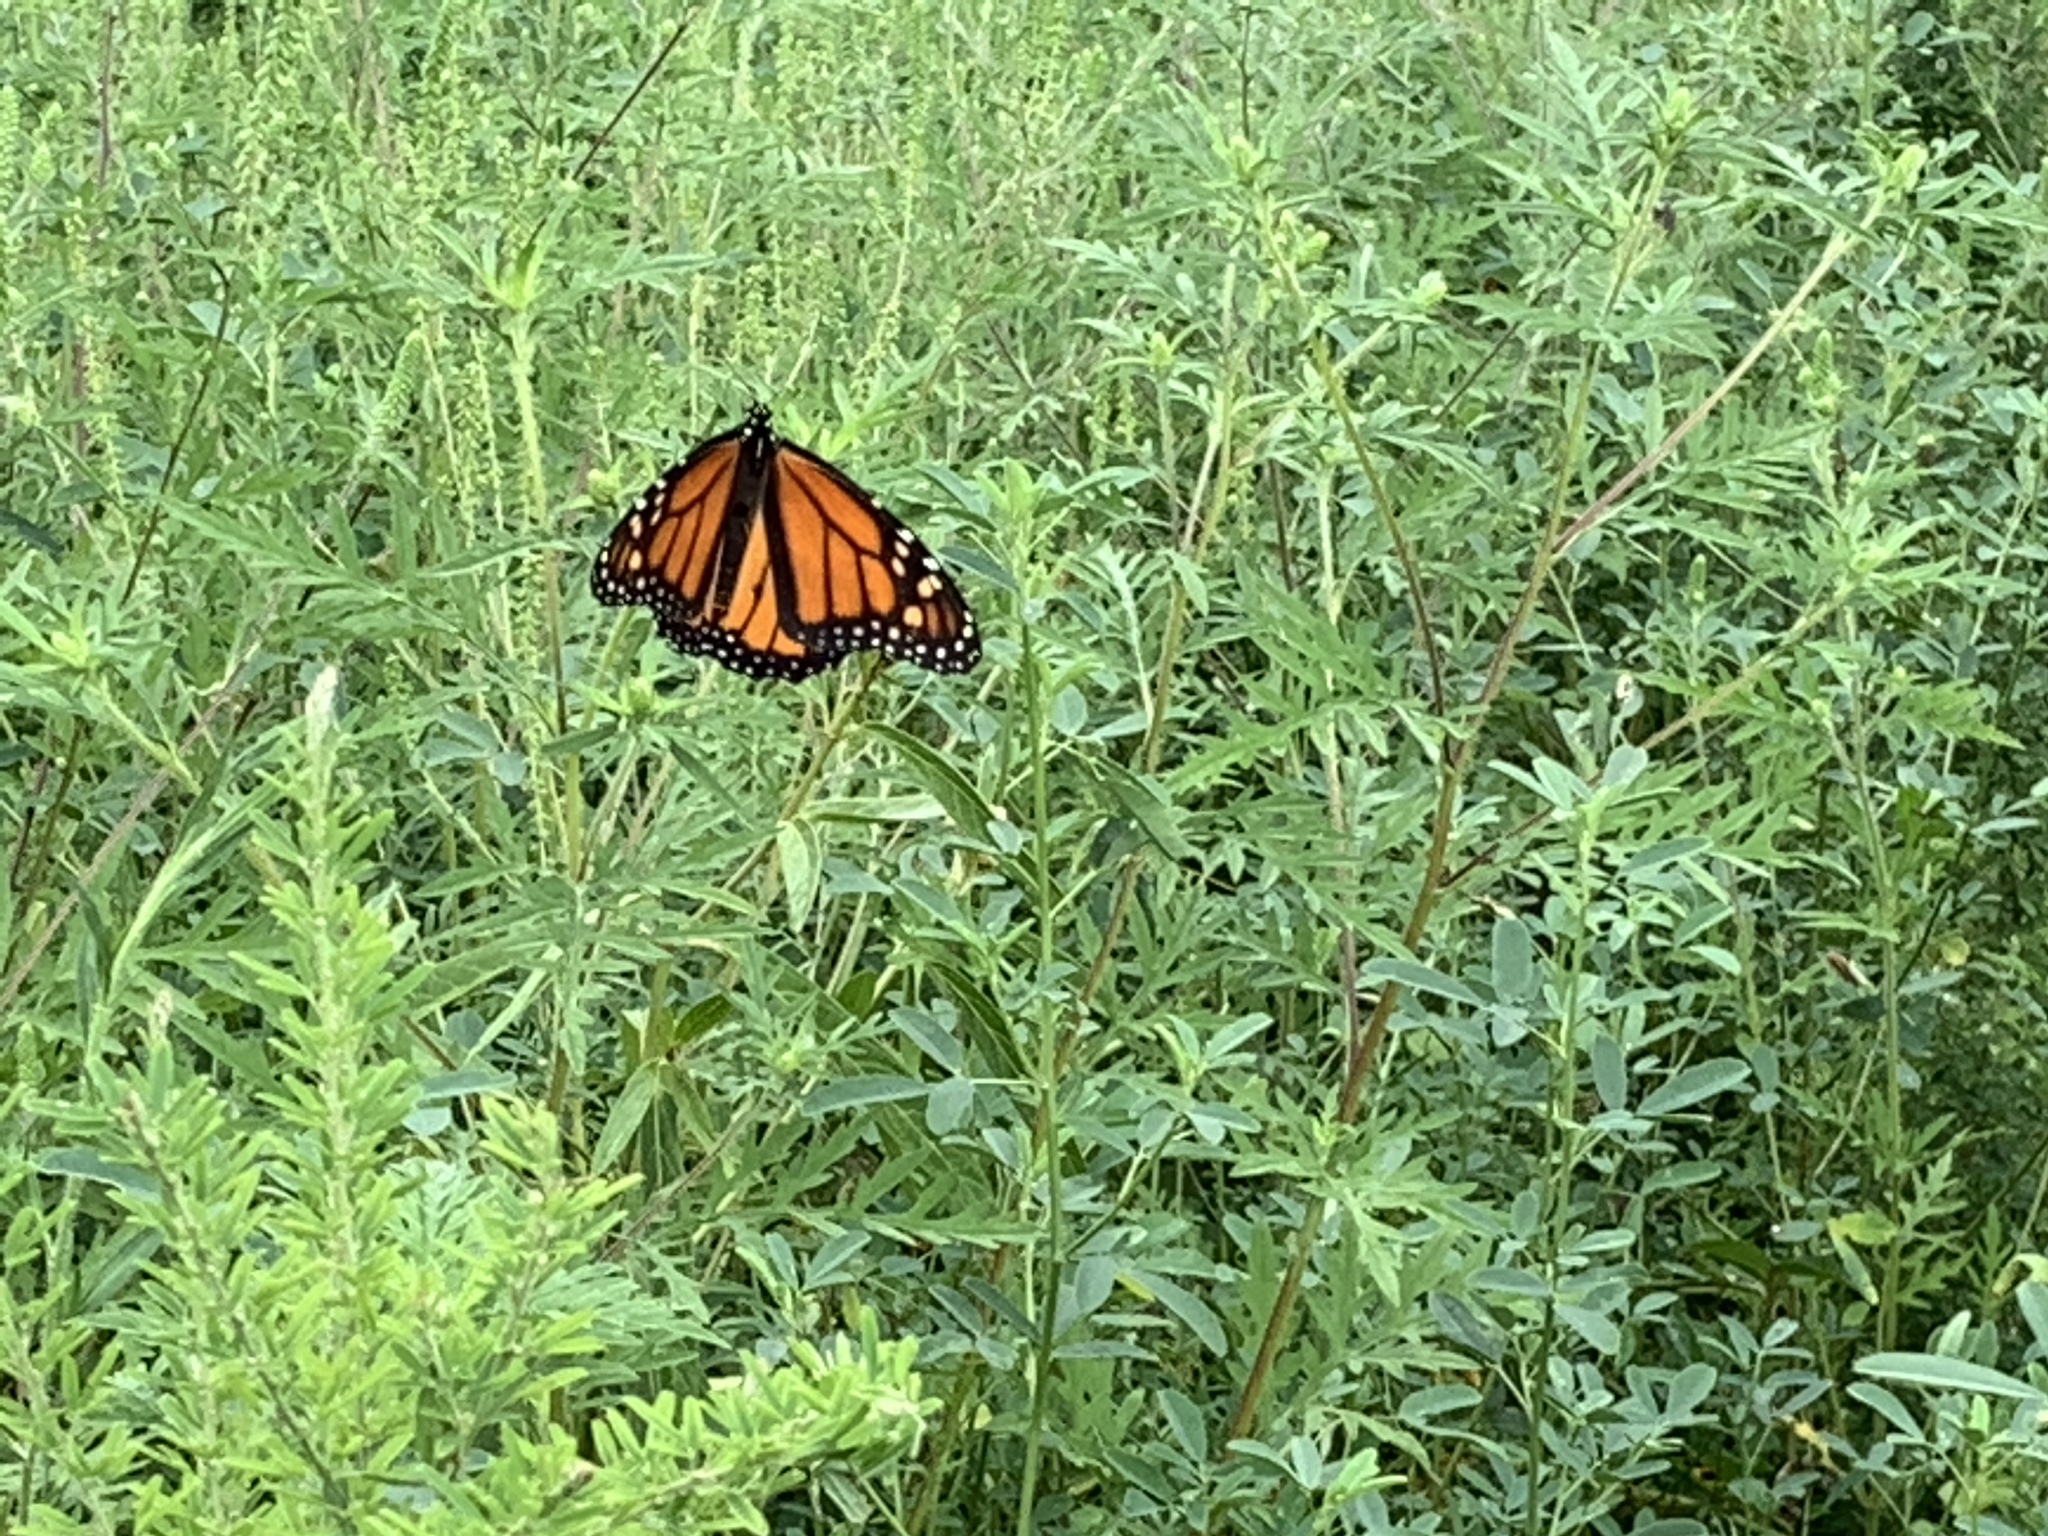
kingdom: Animalia
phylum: Arthropoda
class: Insecta
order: Lepidoptera
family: Nymphalidae
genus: Danaus
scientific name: Danaus plexippus
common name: Monarch
